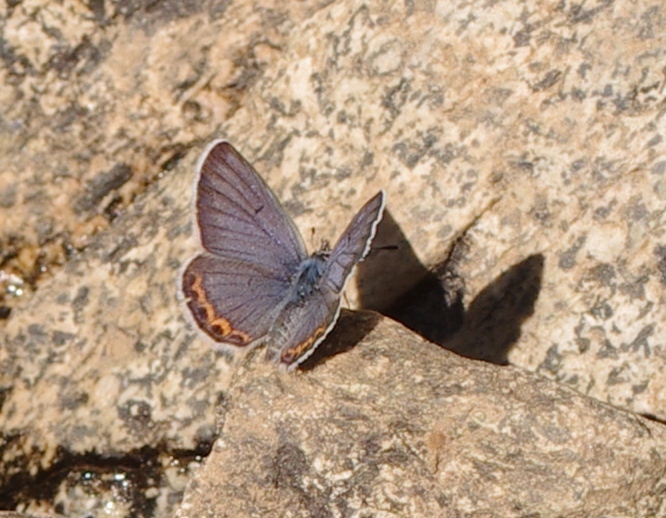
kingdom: Animalia
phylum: Arthropoda
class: Insecta
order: Lepidoptera
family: Lycaenidae
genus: Icaricia
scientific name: Icaricia acmon
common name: Acmon blue
